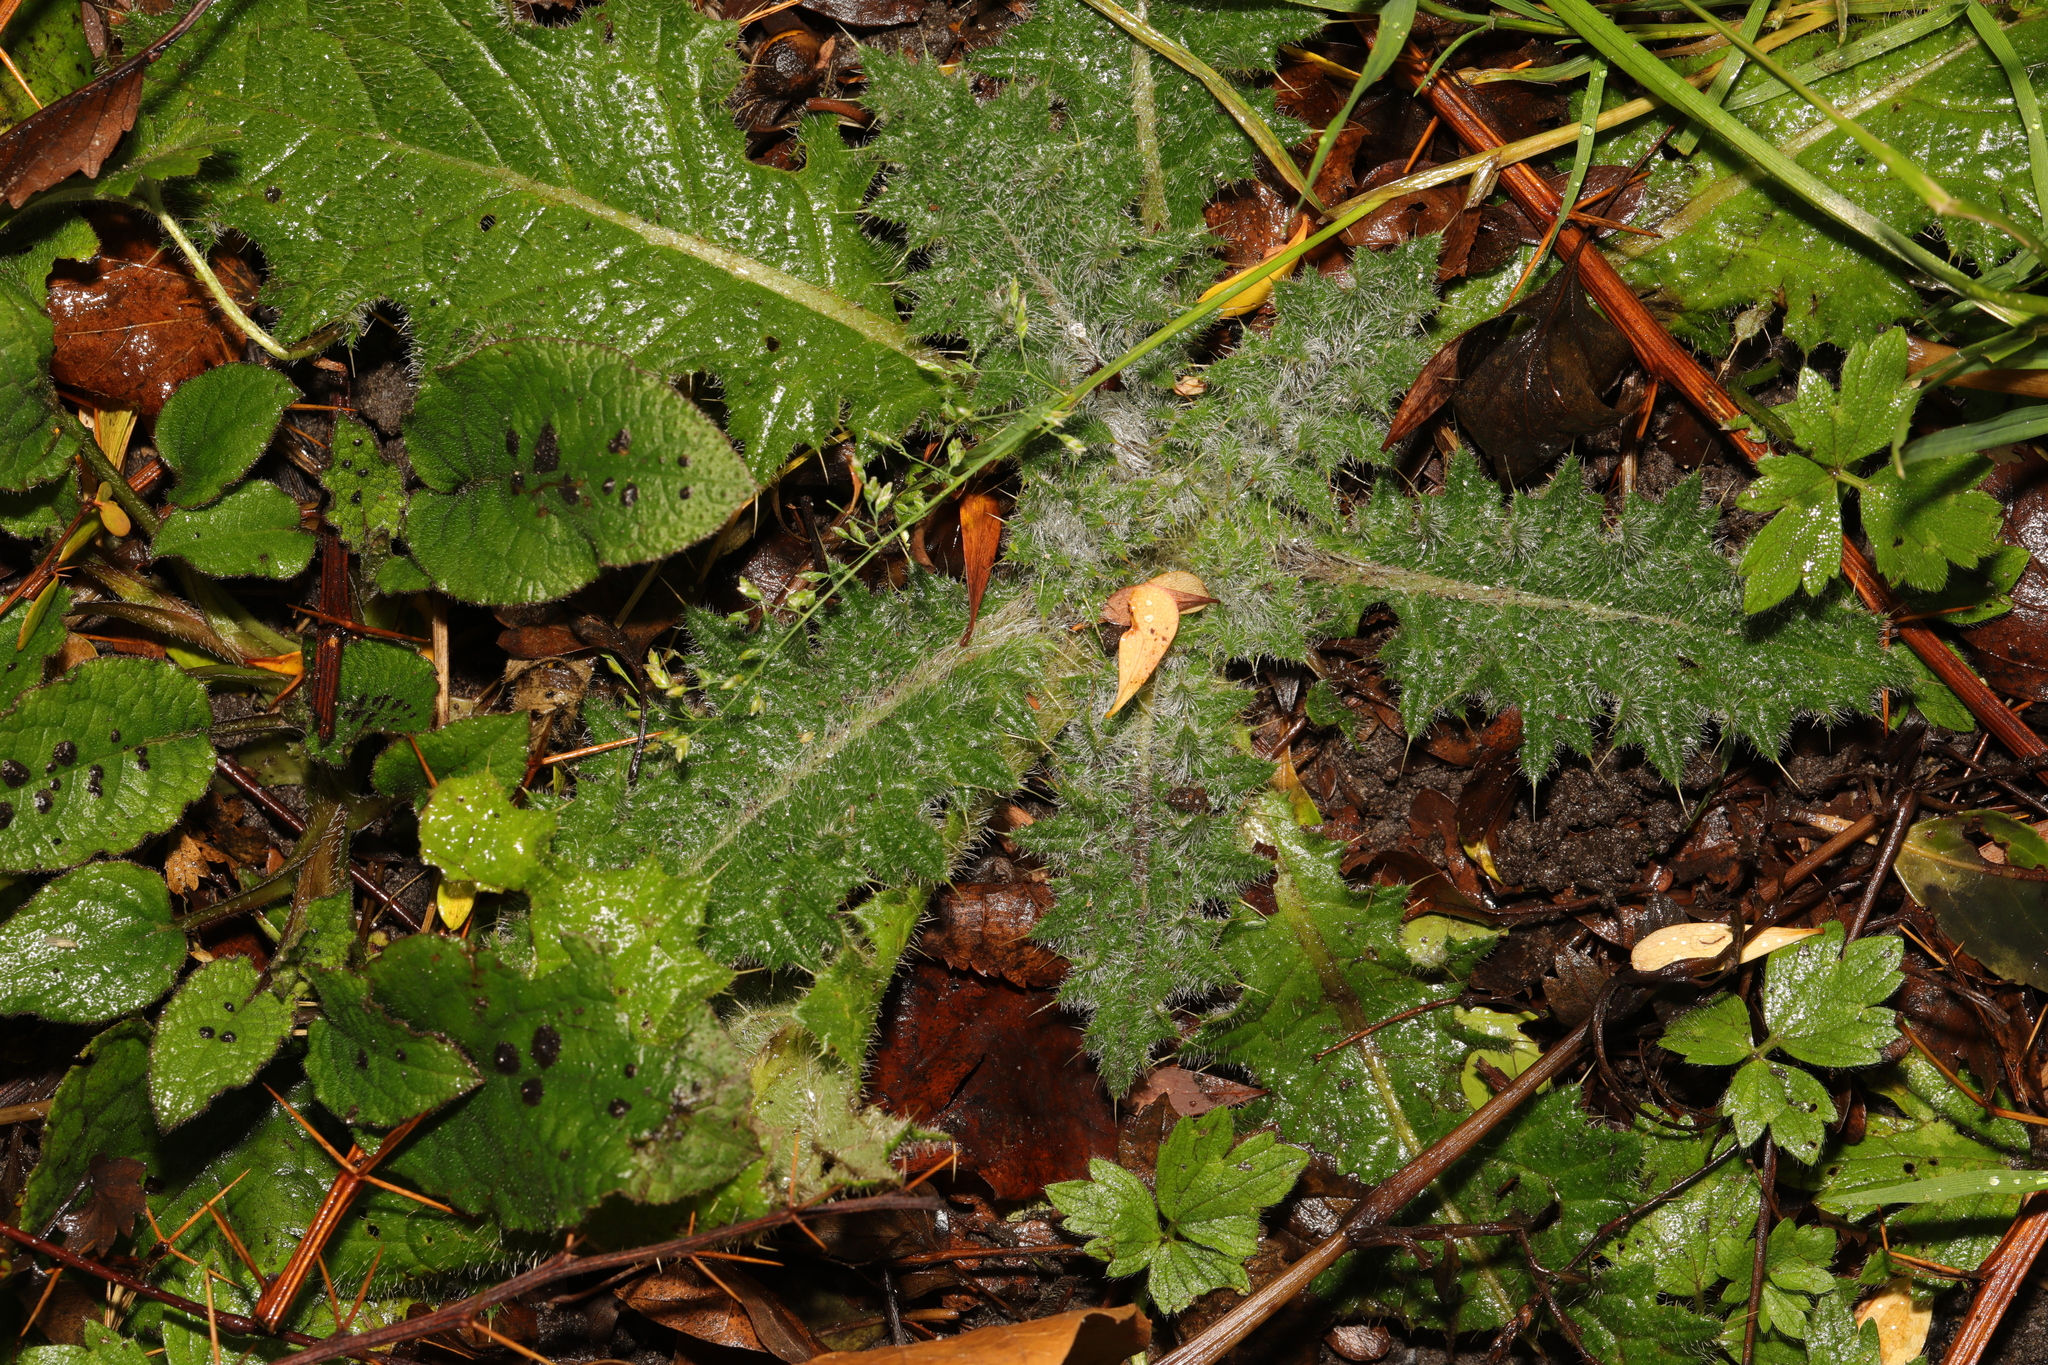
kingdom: Plantae
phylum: Tracheophyta
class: Magnoliopsida
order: Asterales
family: Asteraceae
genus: Cirsium
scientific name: Cirsium vulgare
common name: Bull thistle
